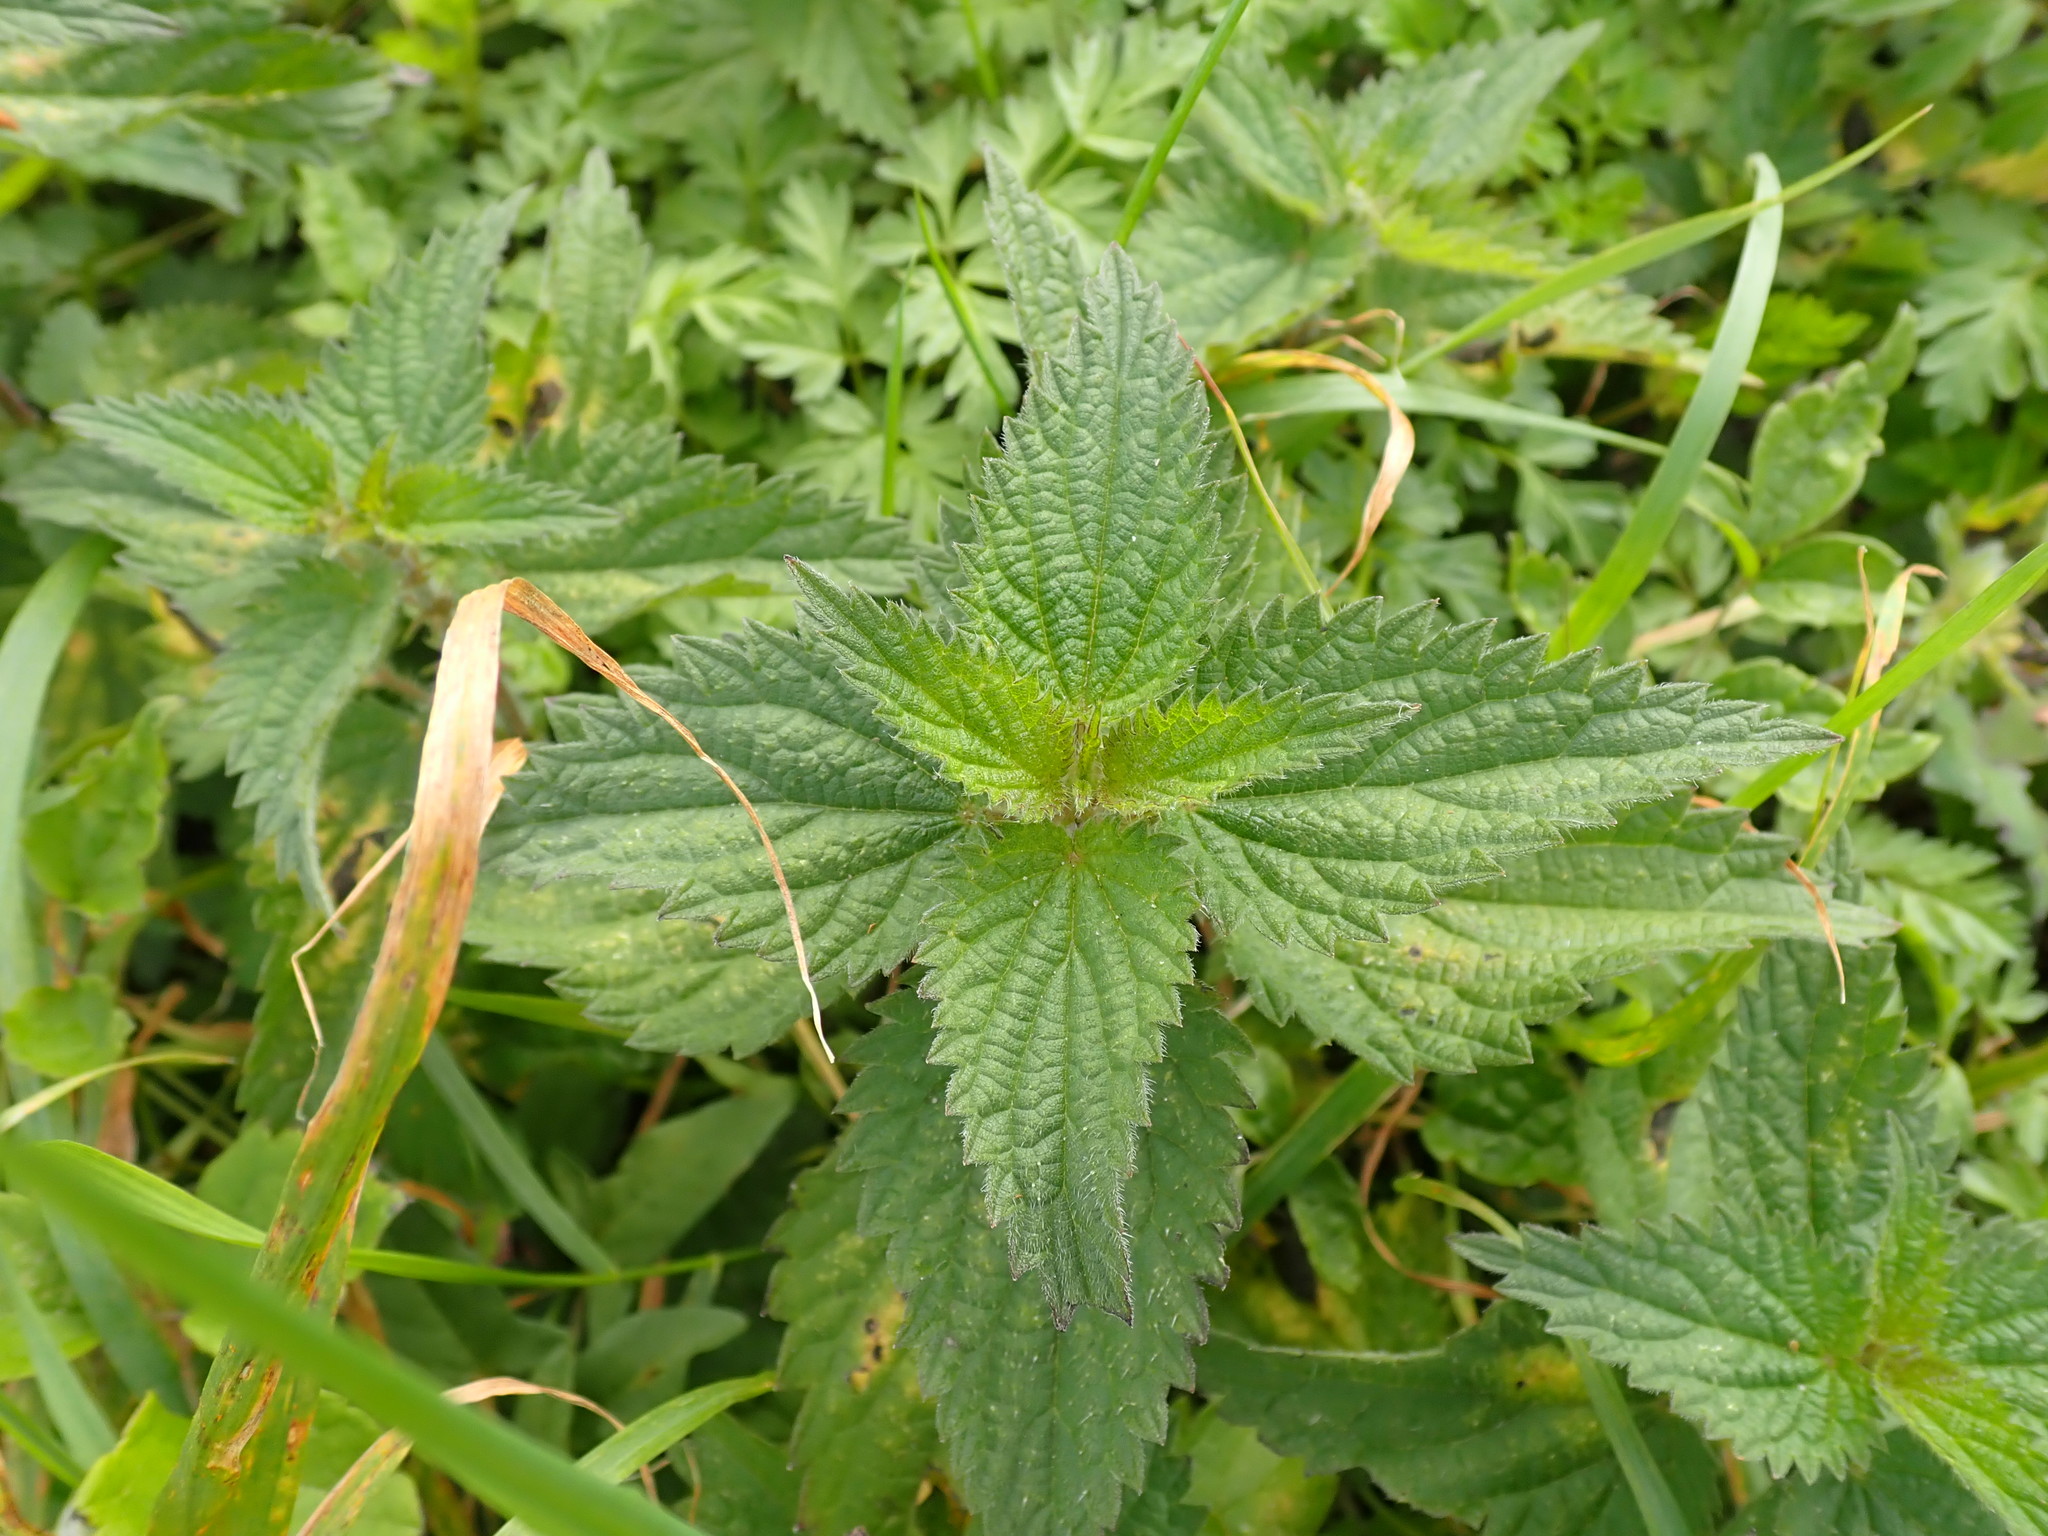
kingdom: Plantae
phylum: Tracheophyta
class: Magnoliopsida
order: Rosales
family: Urticaceae
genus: Urtica
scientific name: Urtica dioica
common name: Common nettle
